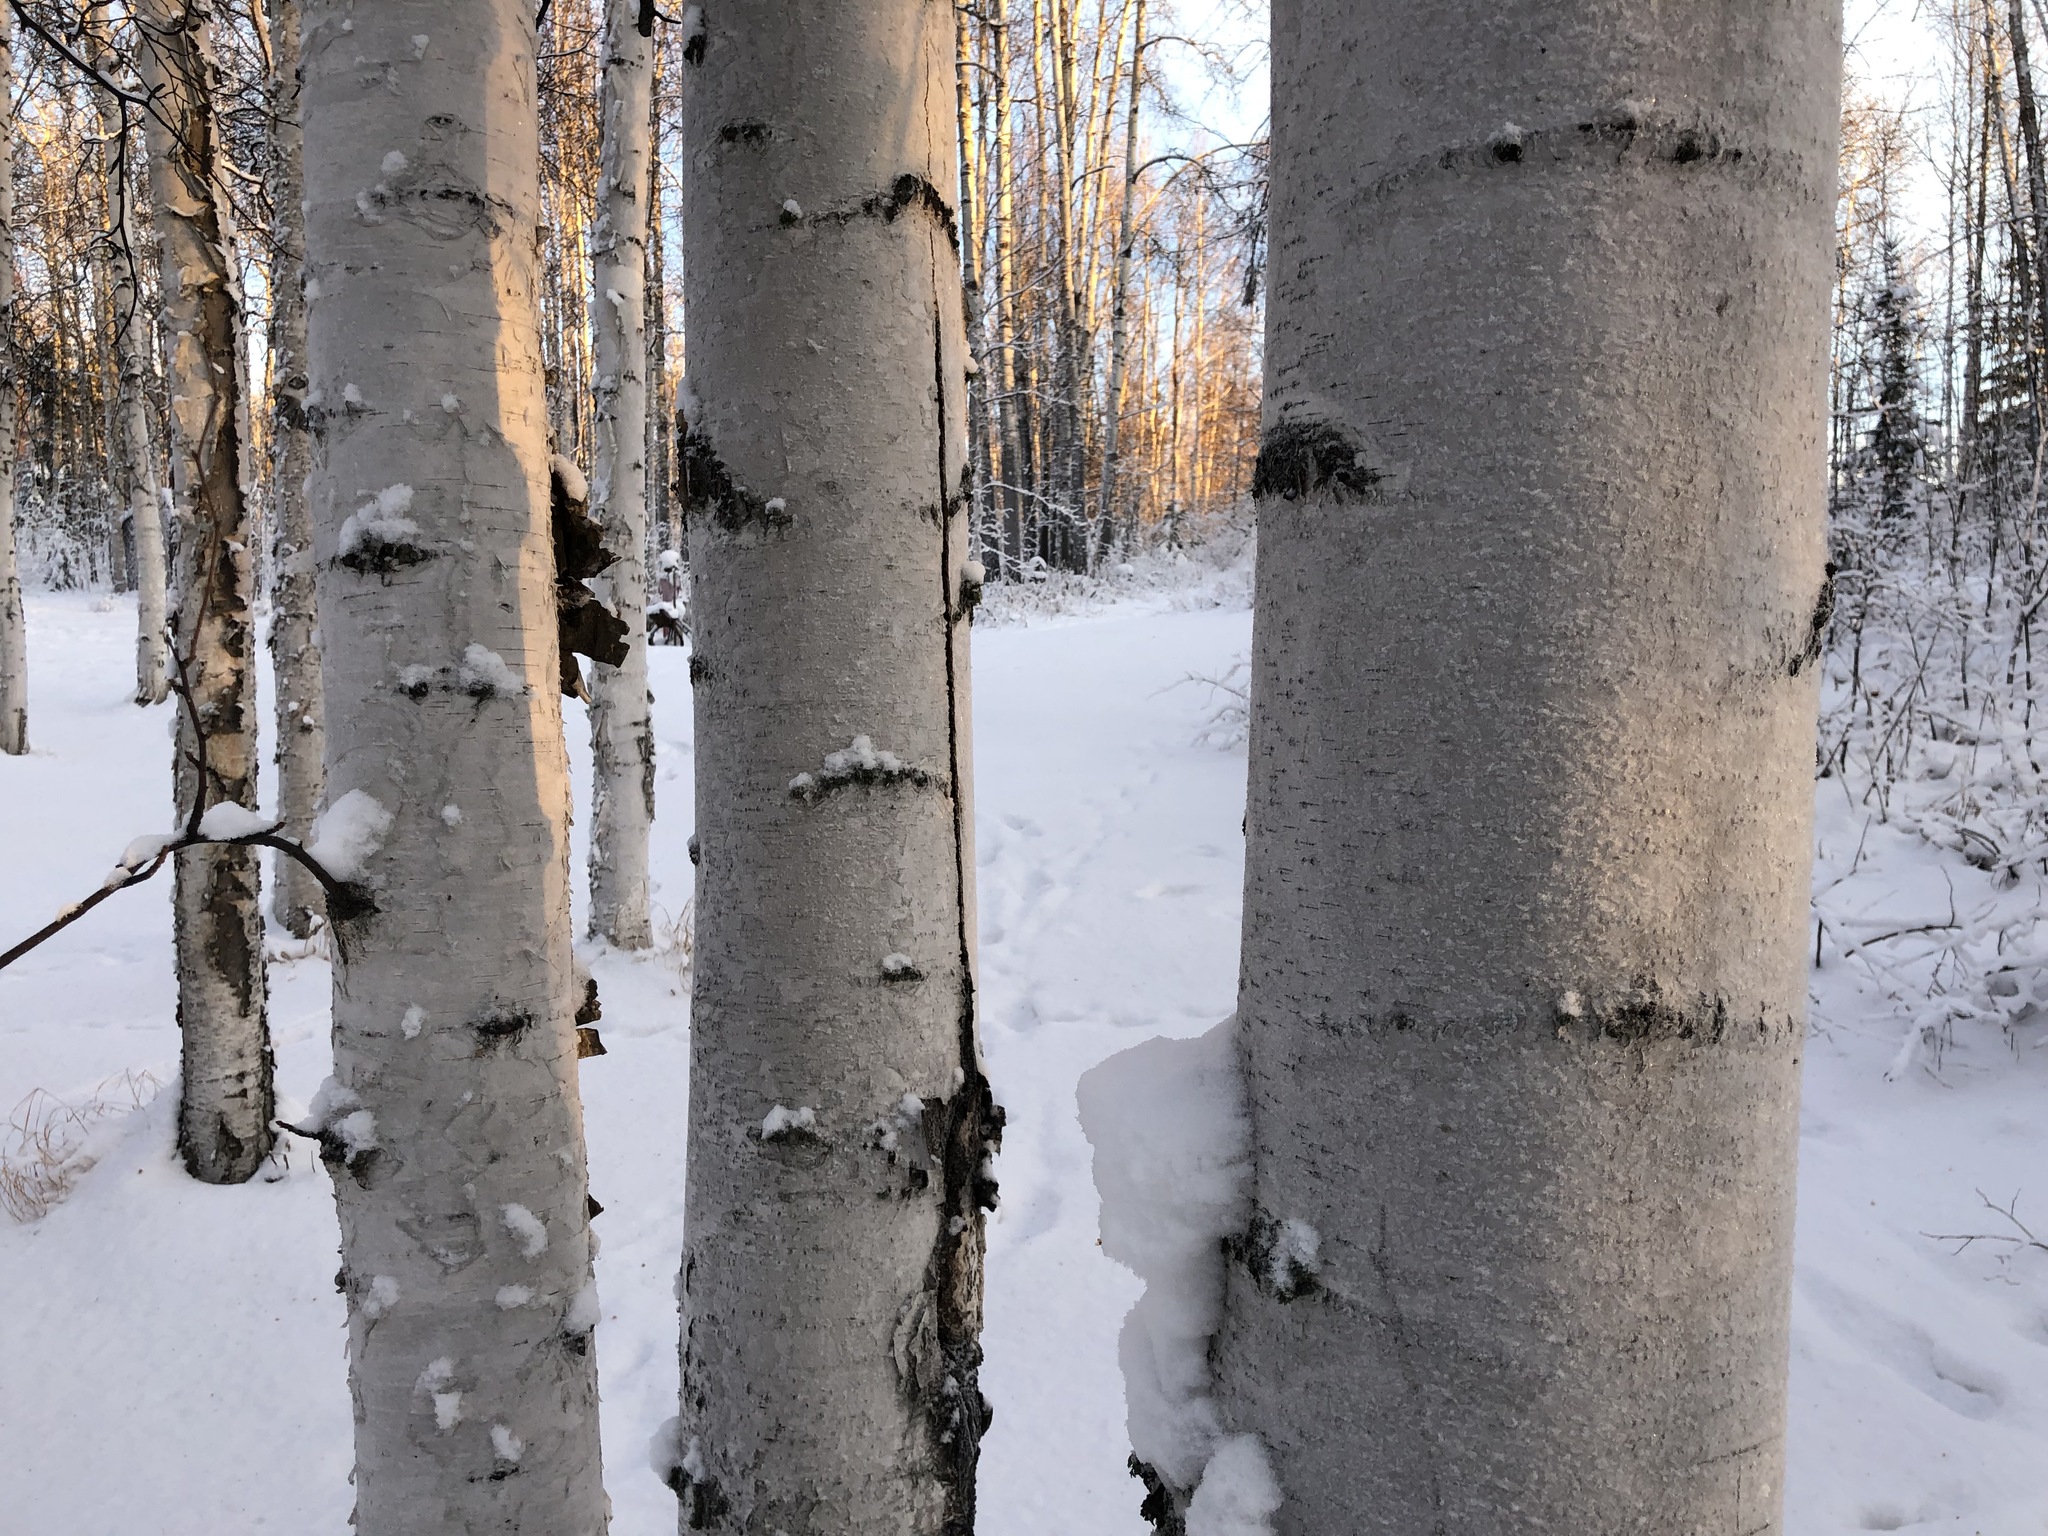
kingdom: Plantae
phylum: Tracheophyta
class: Magnoliopsida
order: Fagales
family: Betulaceae
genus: Betula
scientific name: Betula pendula
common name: Silver birch
